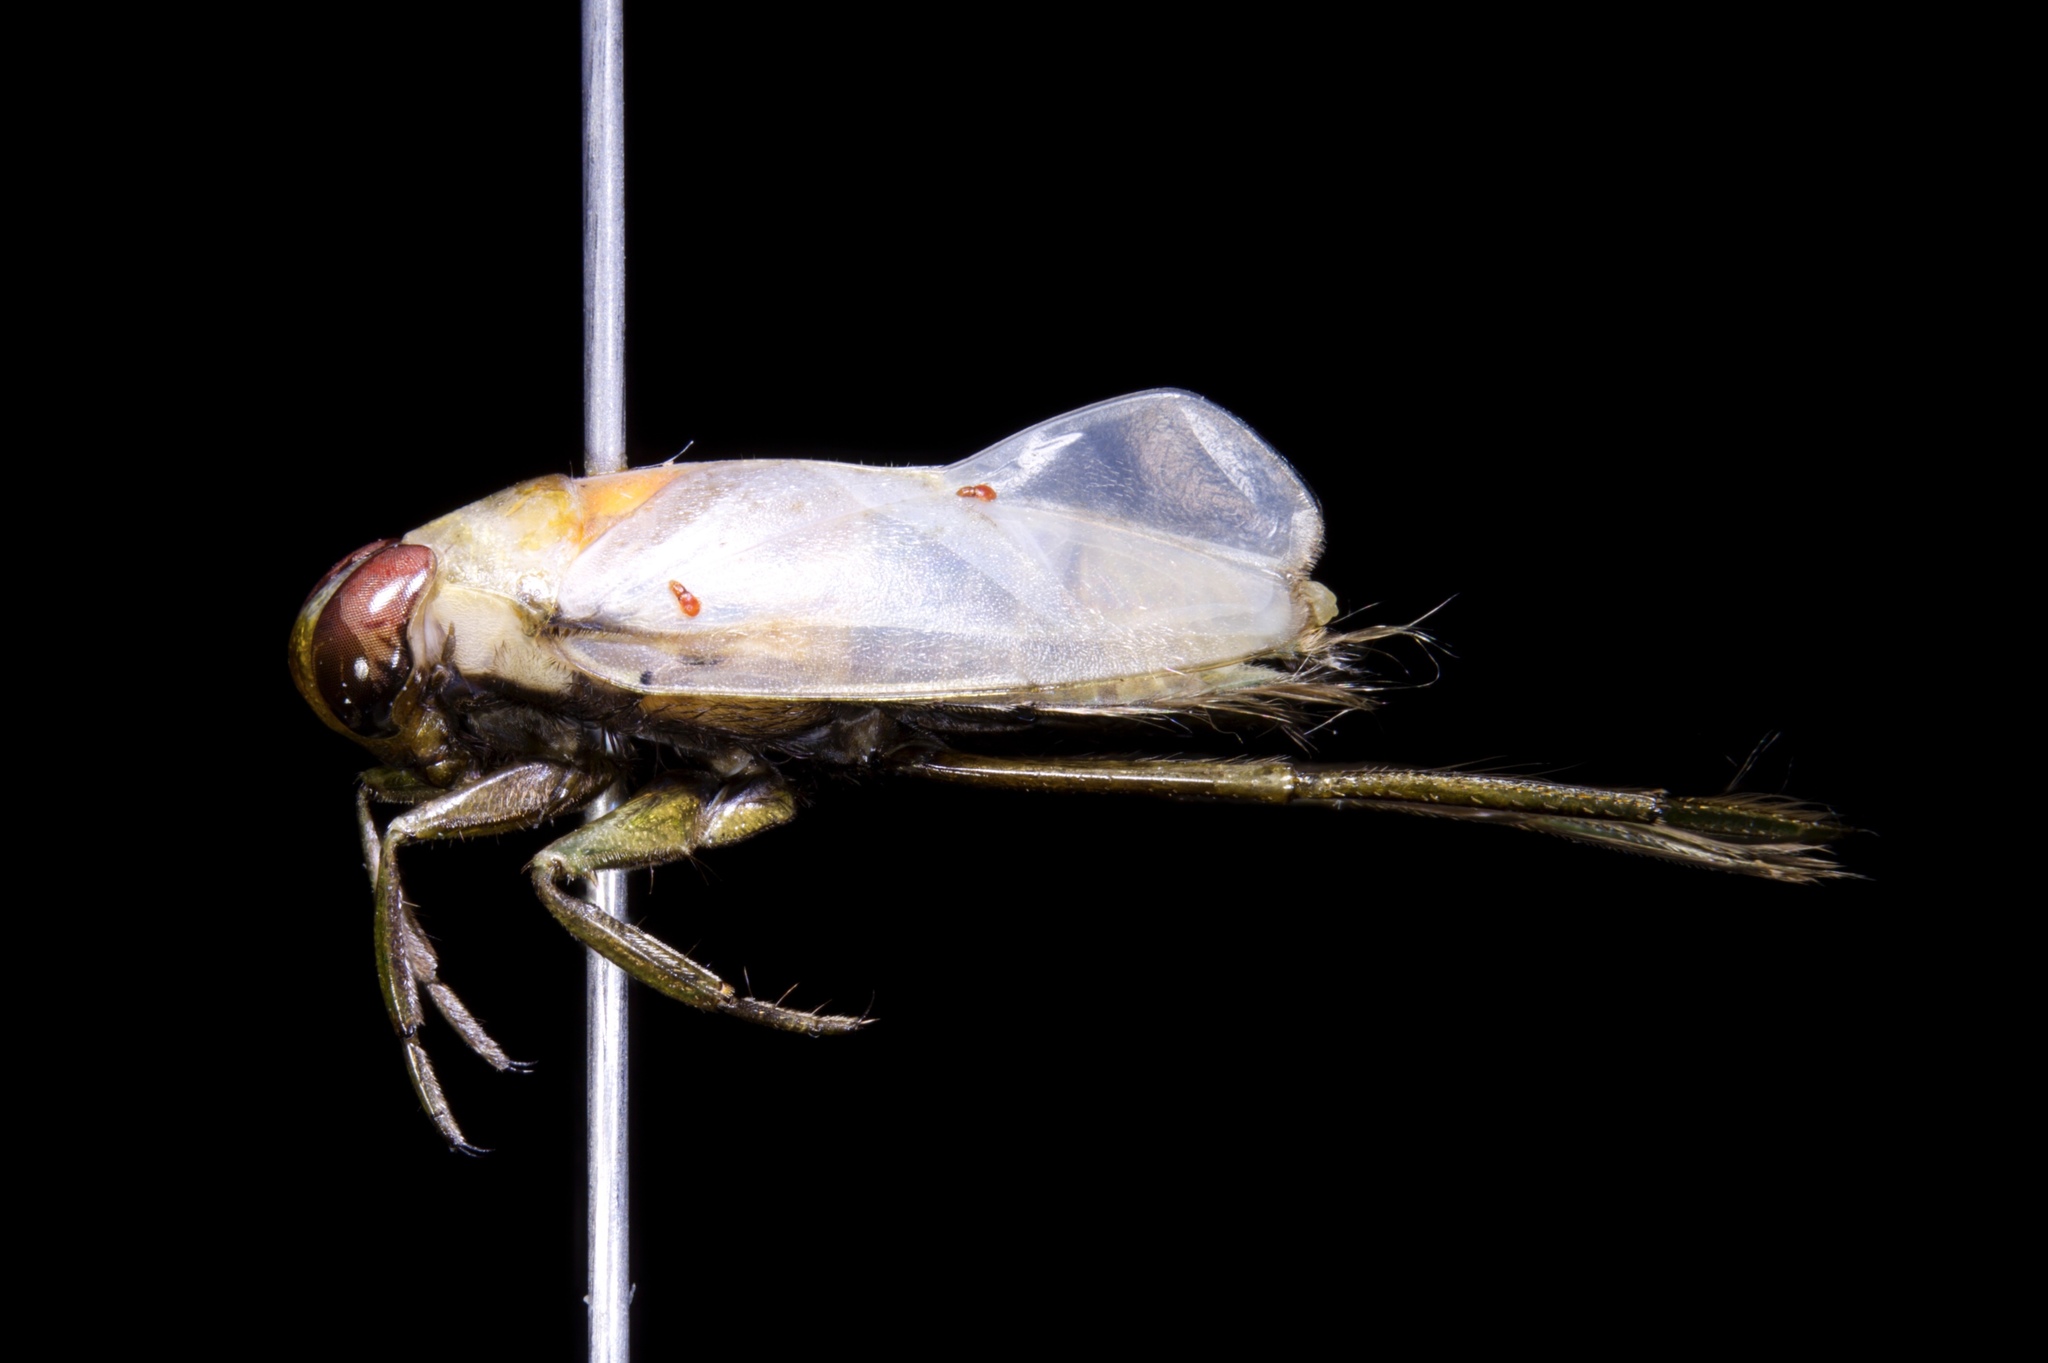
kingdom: Animalia
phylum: Arthropoda
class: Insecta
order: Hemiptera
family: Notonectidae
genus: Notonecta
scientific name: Notonecta petrunkevitchi
